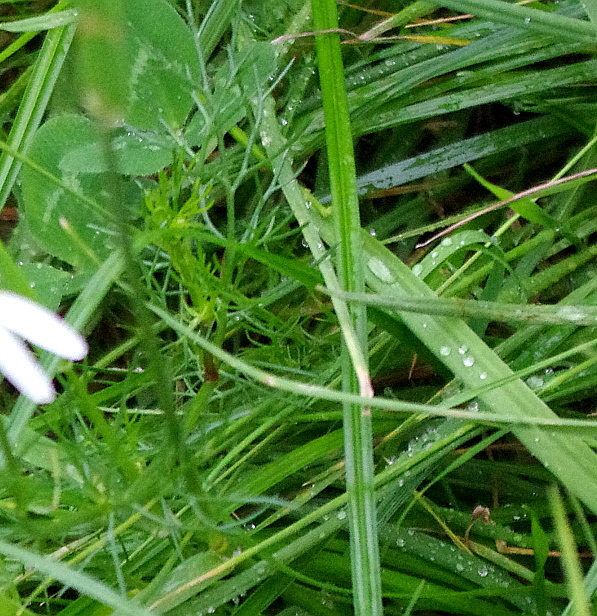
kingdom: Plantae
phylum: Tracheophyta
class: Magnoliopsida
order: Asterales
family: Asteraceae
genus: Tripleurospermum
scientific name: Tripleurospermum inodorum
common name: Scentless mayweed
